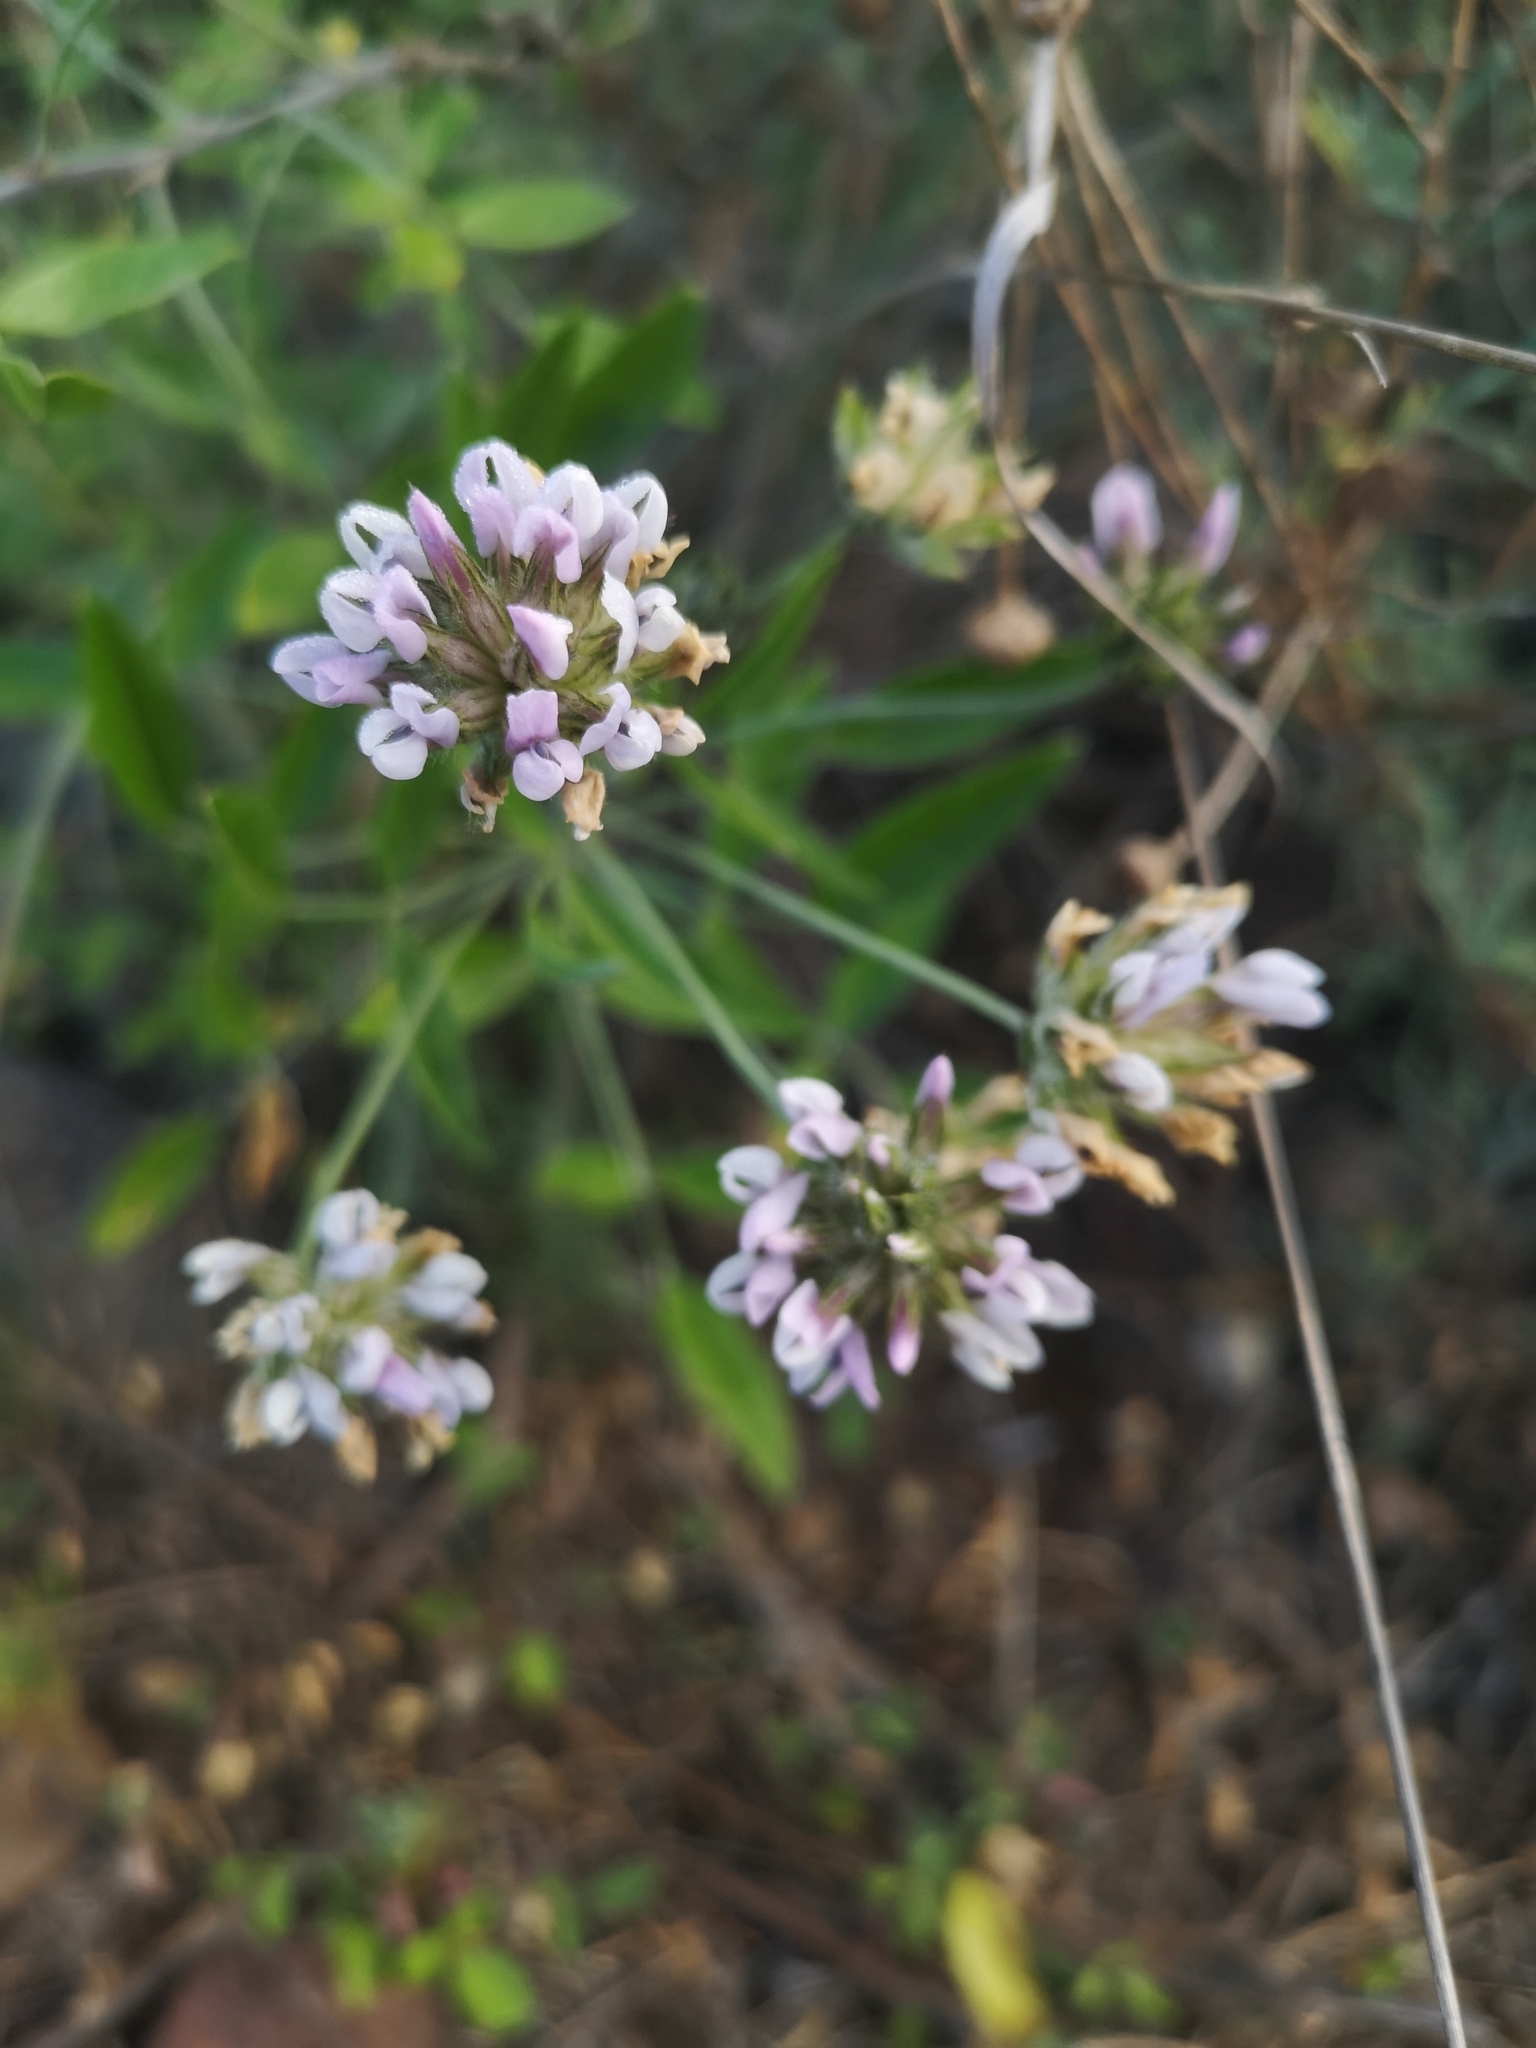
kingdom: Plantae
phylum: Tracheophyta
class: Magnoliopsida
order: Fabales
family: Fabaceae
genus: Bituminaria
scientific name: Bituminaria bituminosa
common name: Arabian pea
